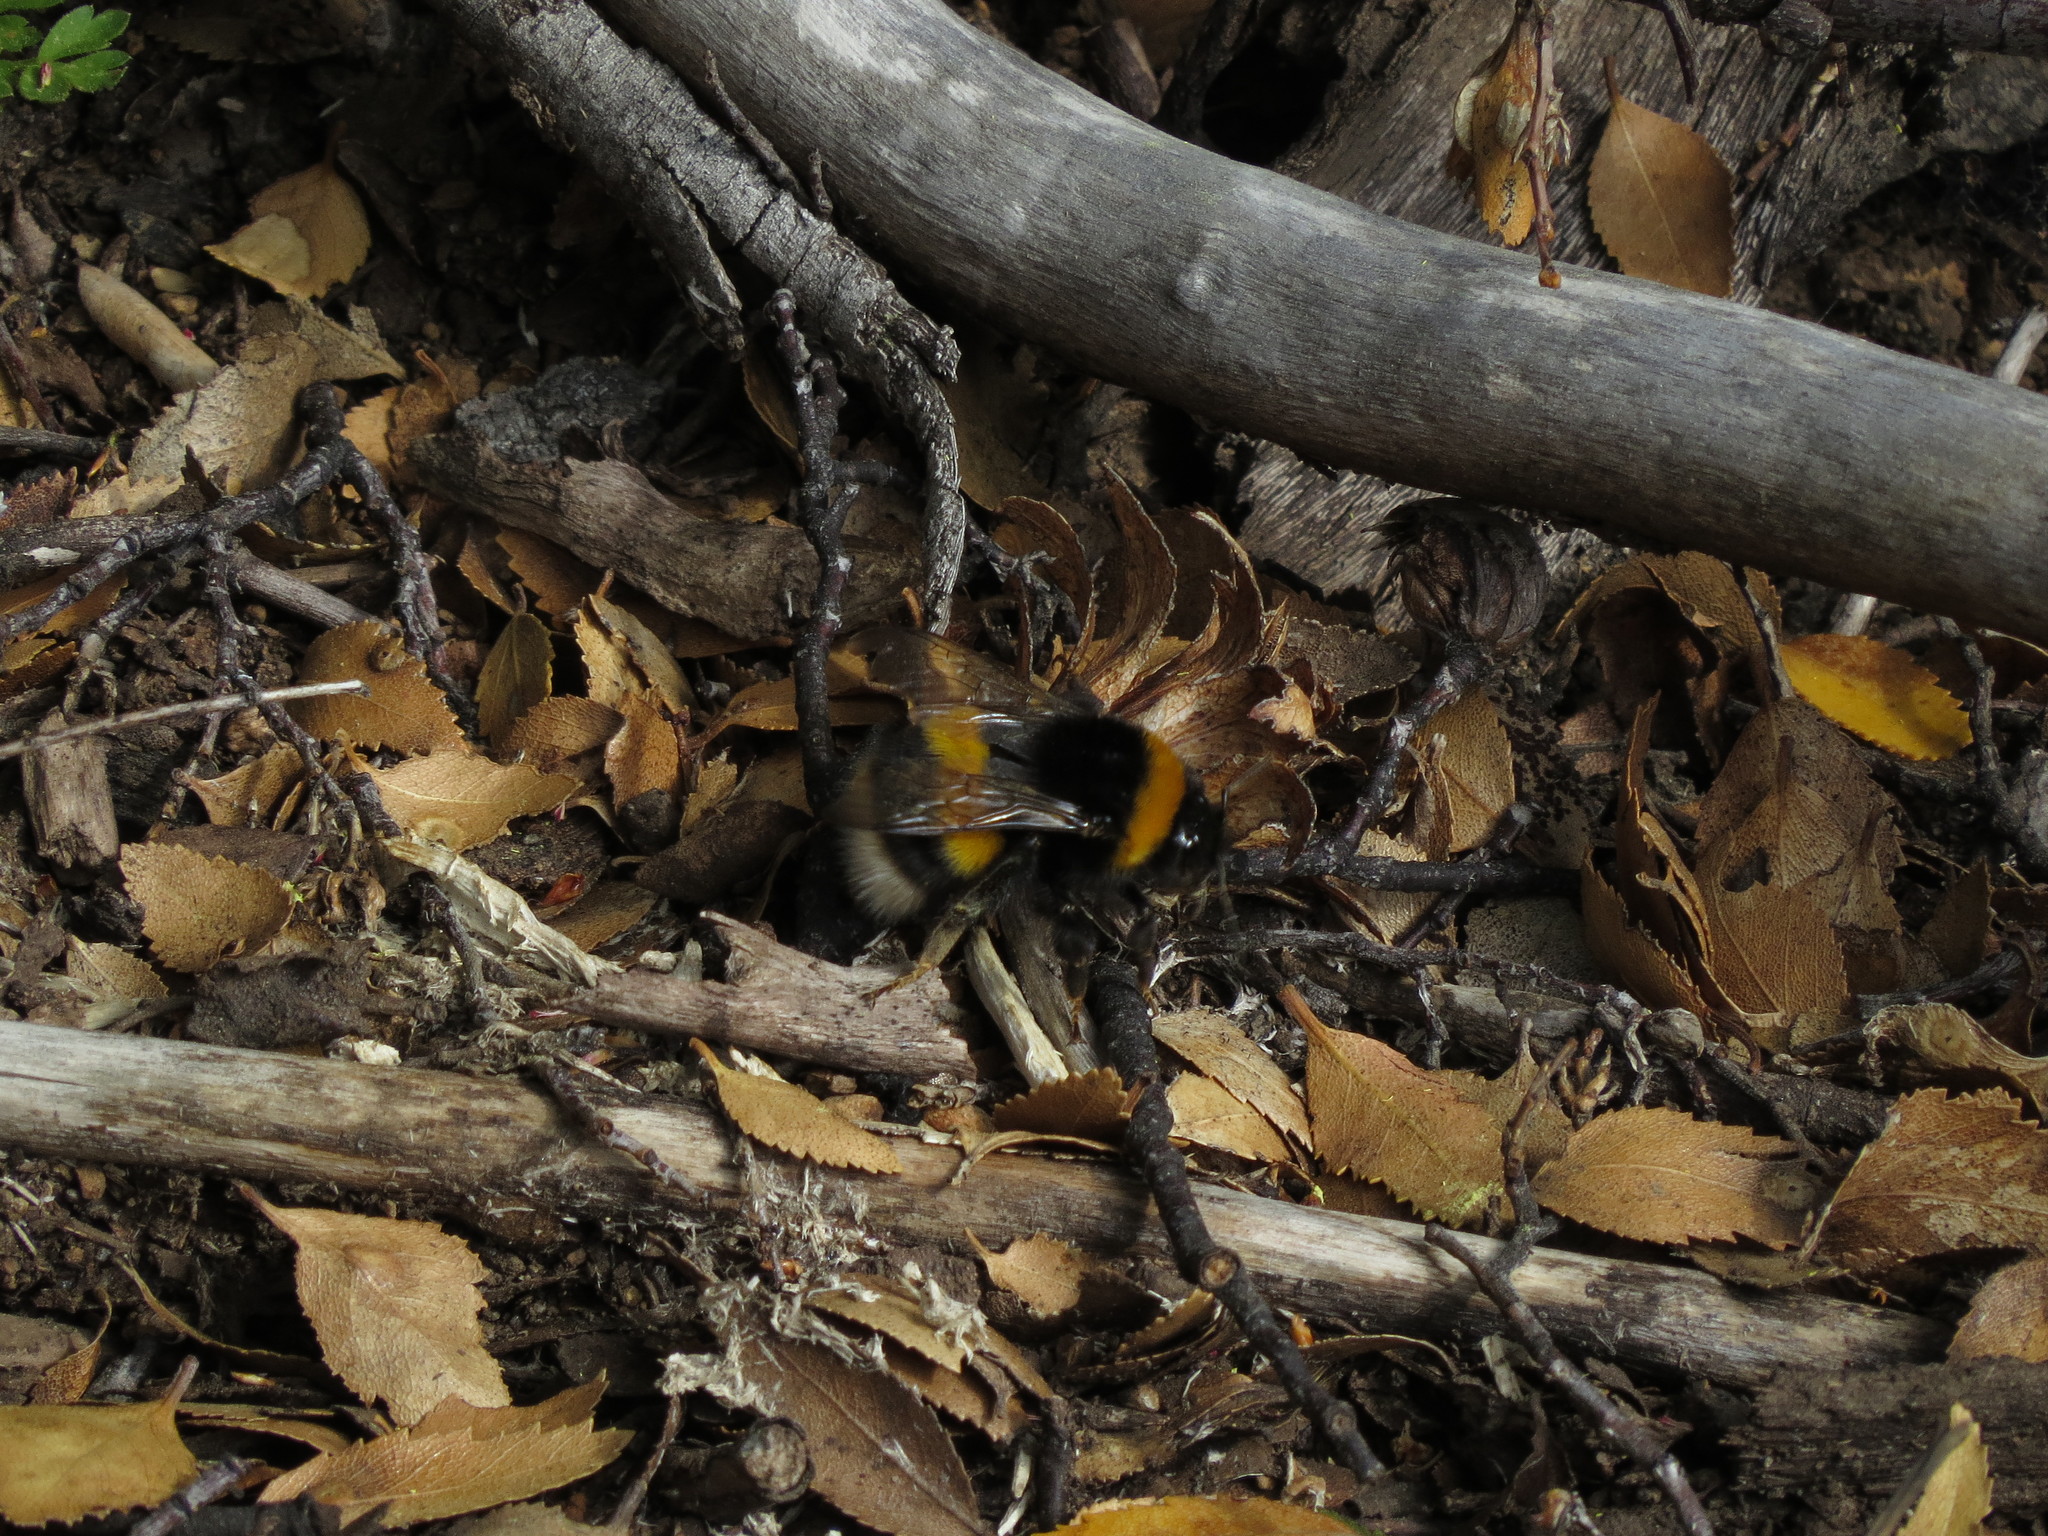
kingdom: Animalia
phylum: Arthropoda
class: Insecta
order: Hymenoptera
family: Apidae
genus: Bombus
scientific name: Bombus terrestris
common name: Buff-tailed bumblebee
